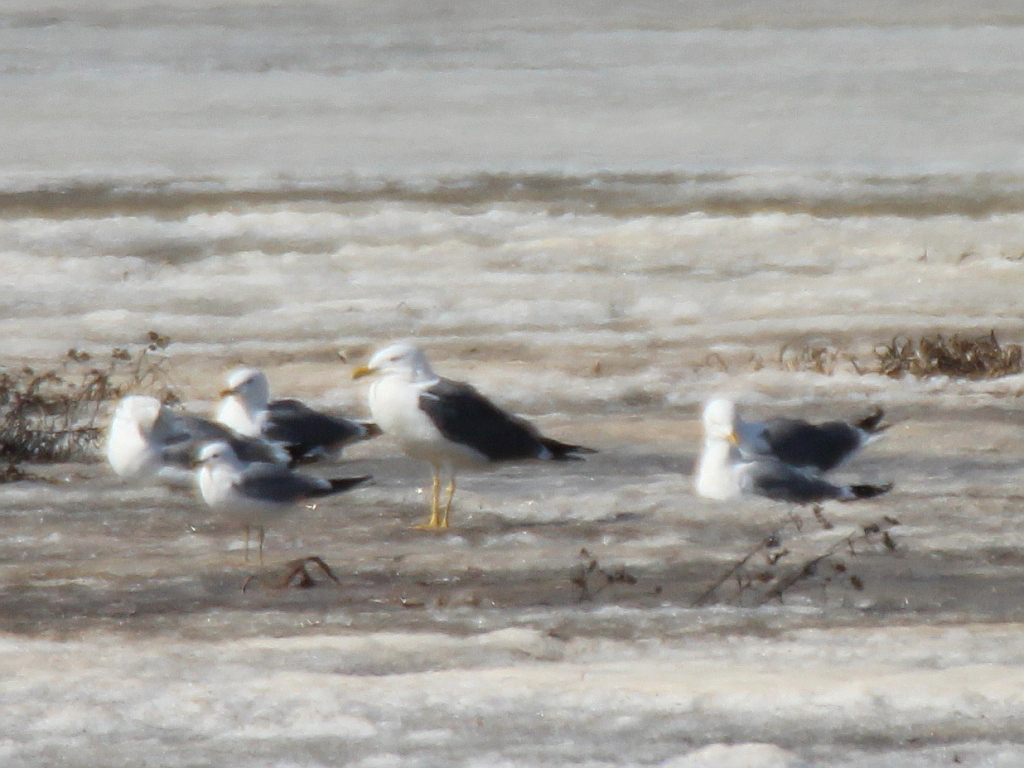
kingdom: Animalia
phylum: Chordata
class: Aves
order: Charadriiformes
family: Laridae
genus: Larus
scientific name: Larus fuscus
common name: Lesser black-backed gull
